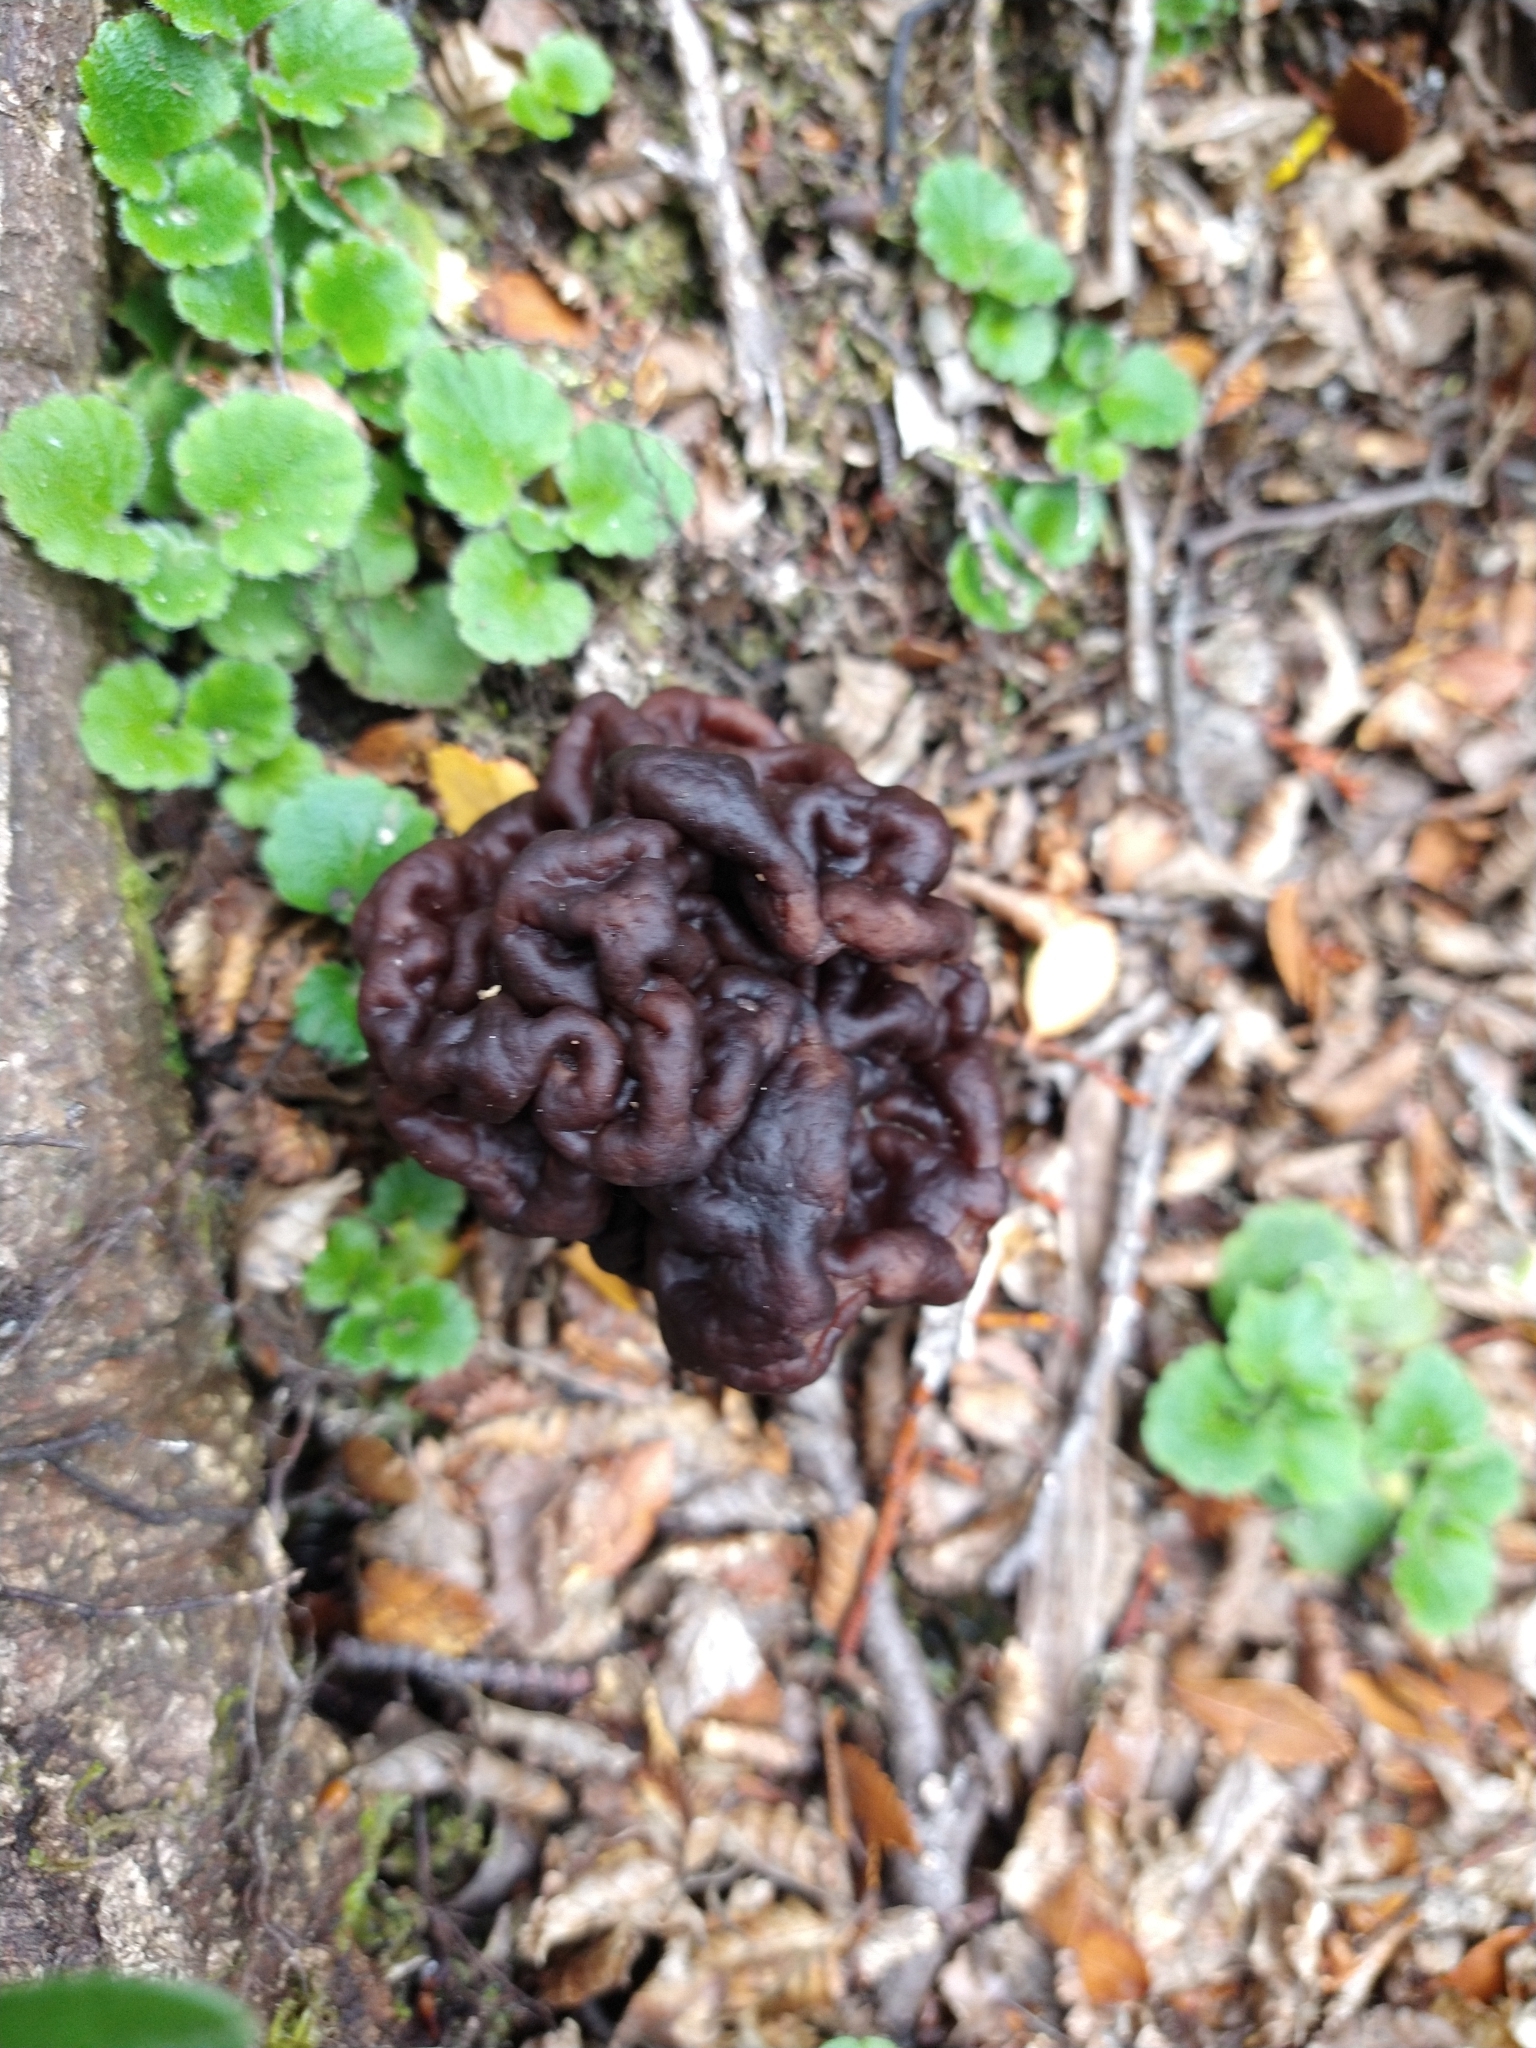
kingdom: Fungi
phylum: Ascomycota
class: Pezizomycetes
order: Pezizales
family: Discinaceae
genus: Gyromitra
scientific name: Gyromitra antarctica
